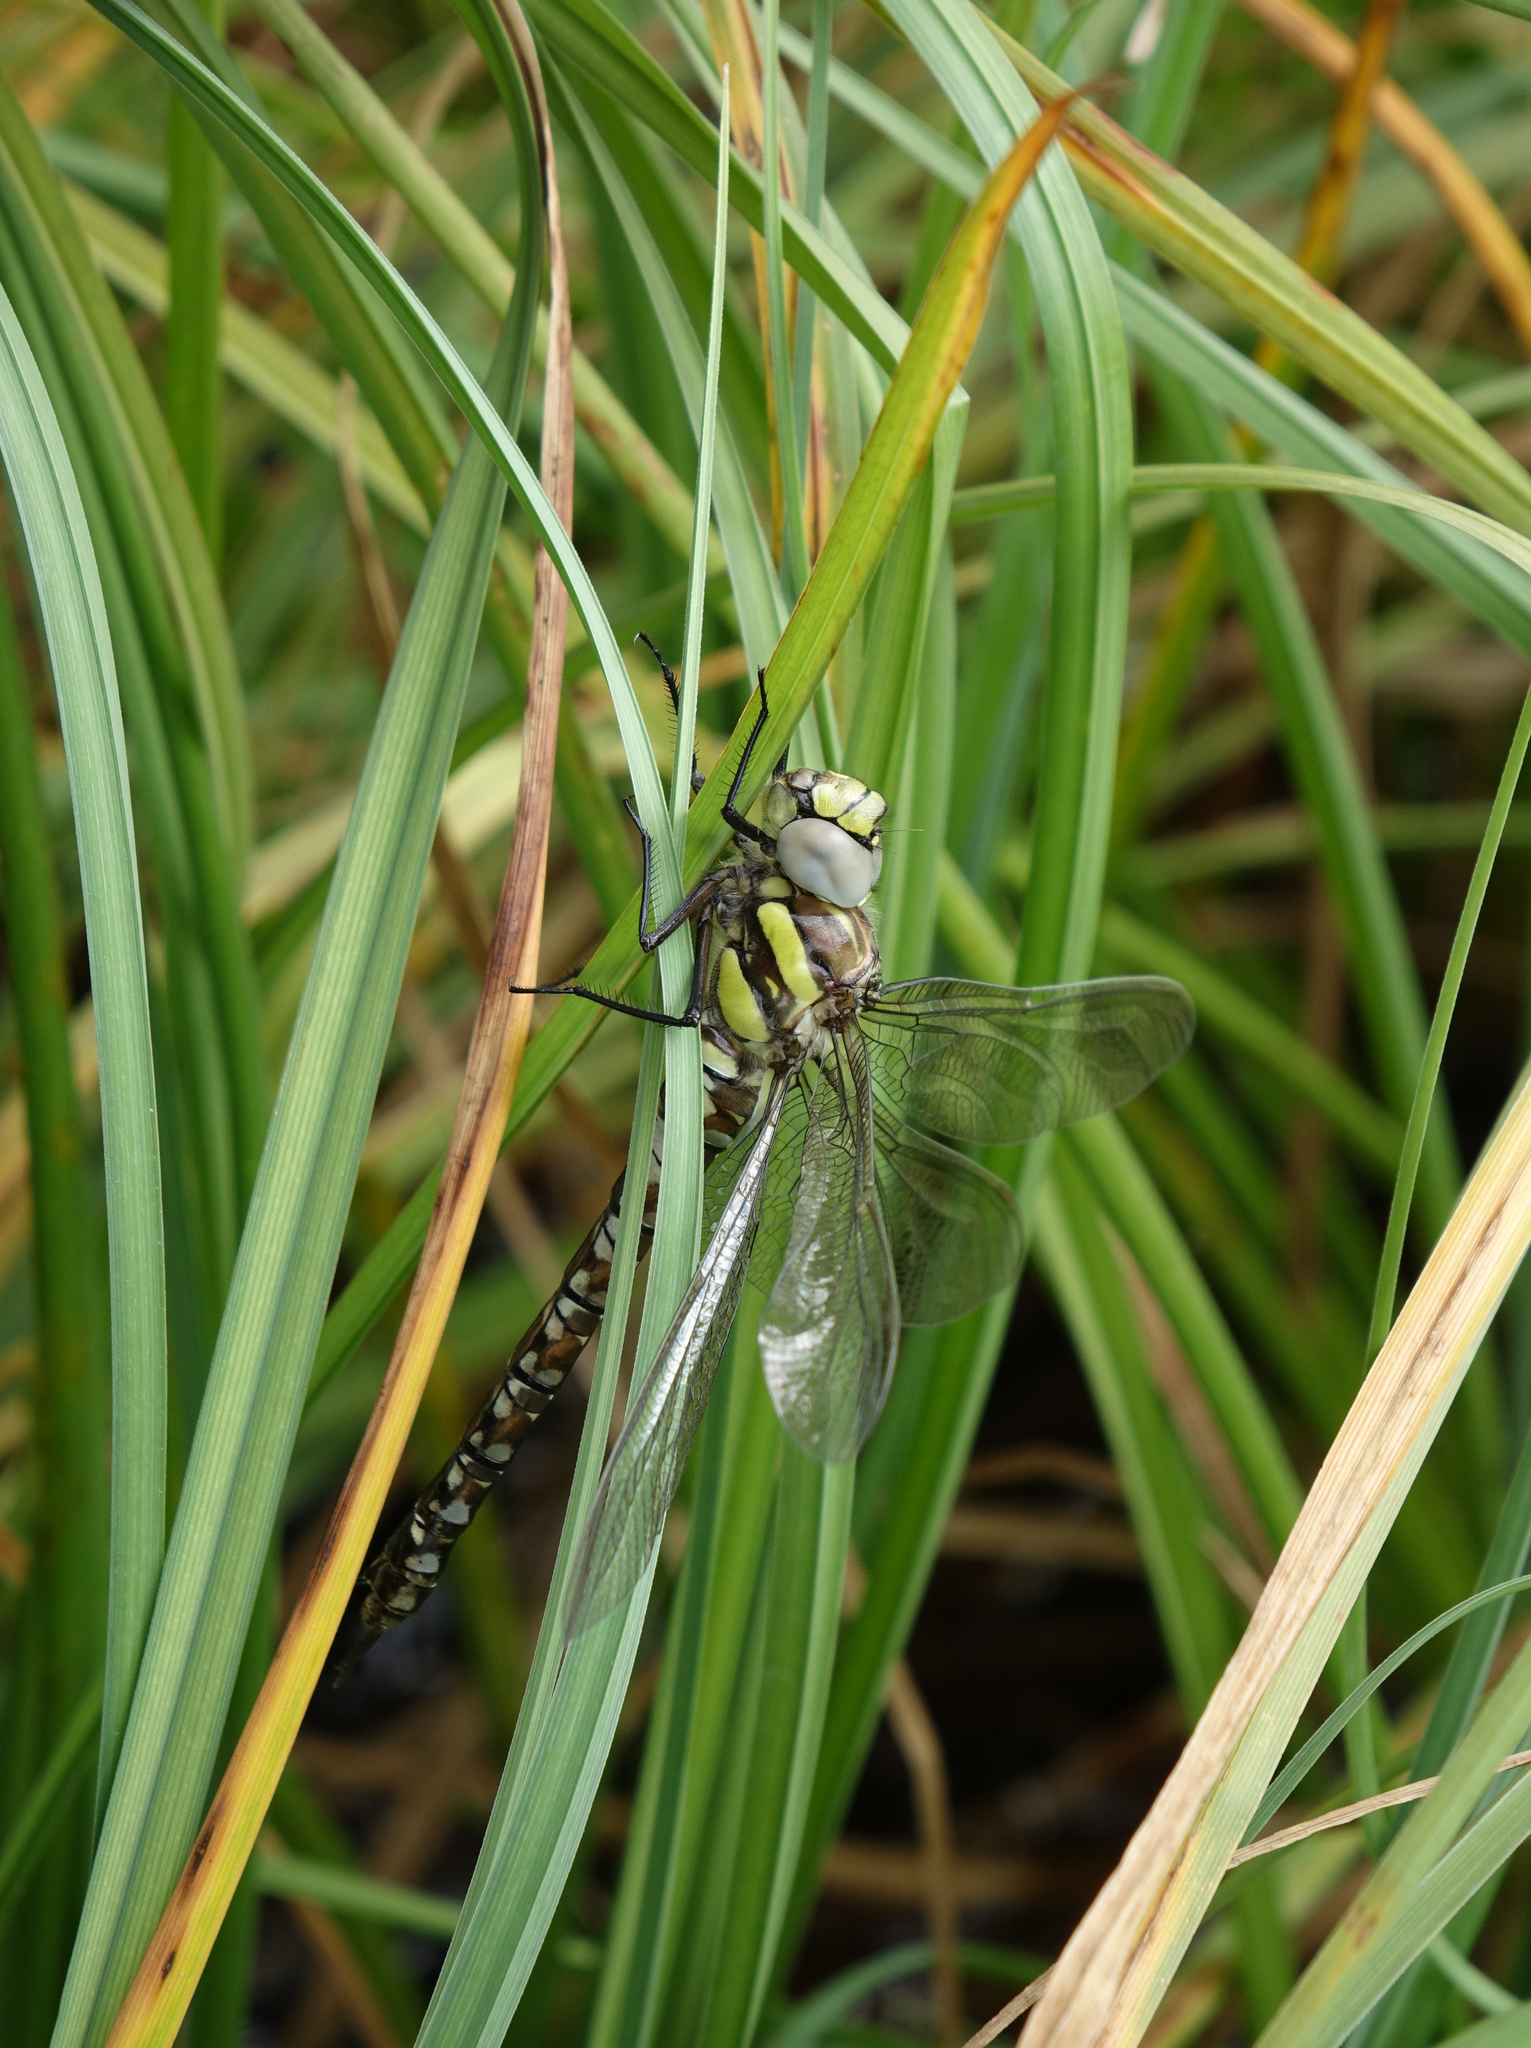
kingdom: Animalia
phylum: Arthropoda
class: Insecta
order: Odonata
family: Aeshnidae
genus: Aeshna
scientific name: Aeshna juncea
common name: Moorland hawker
